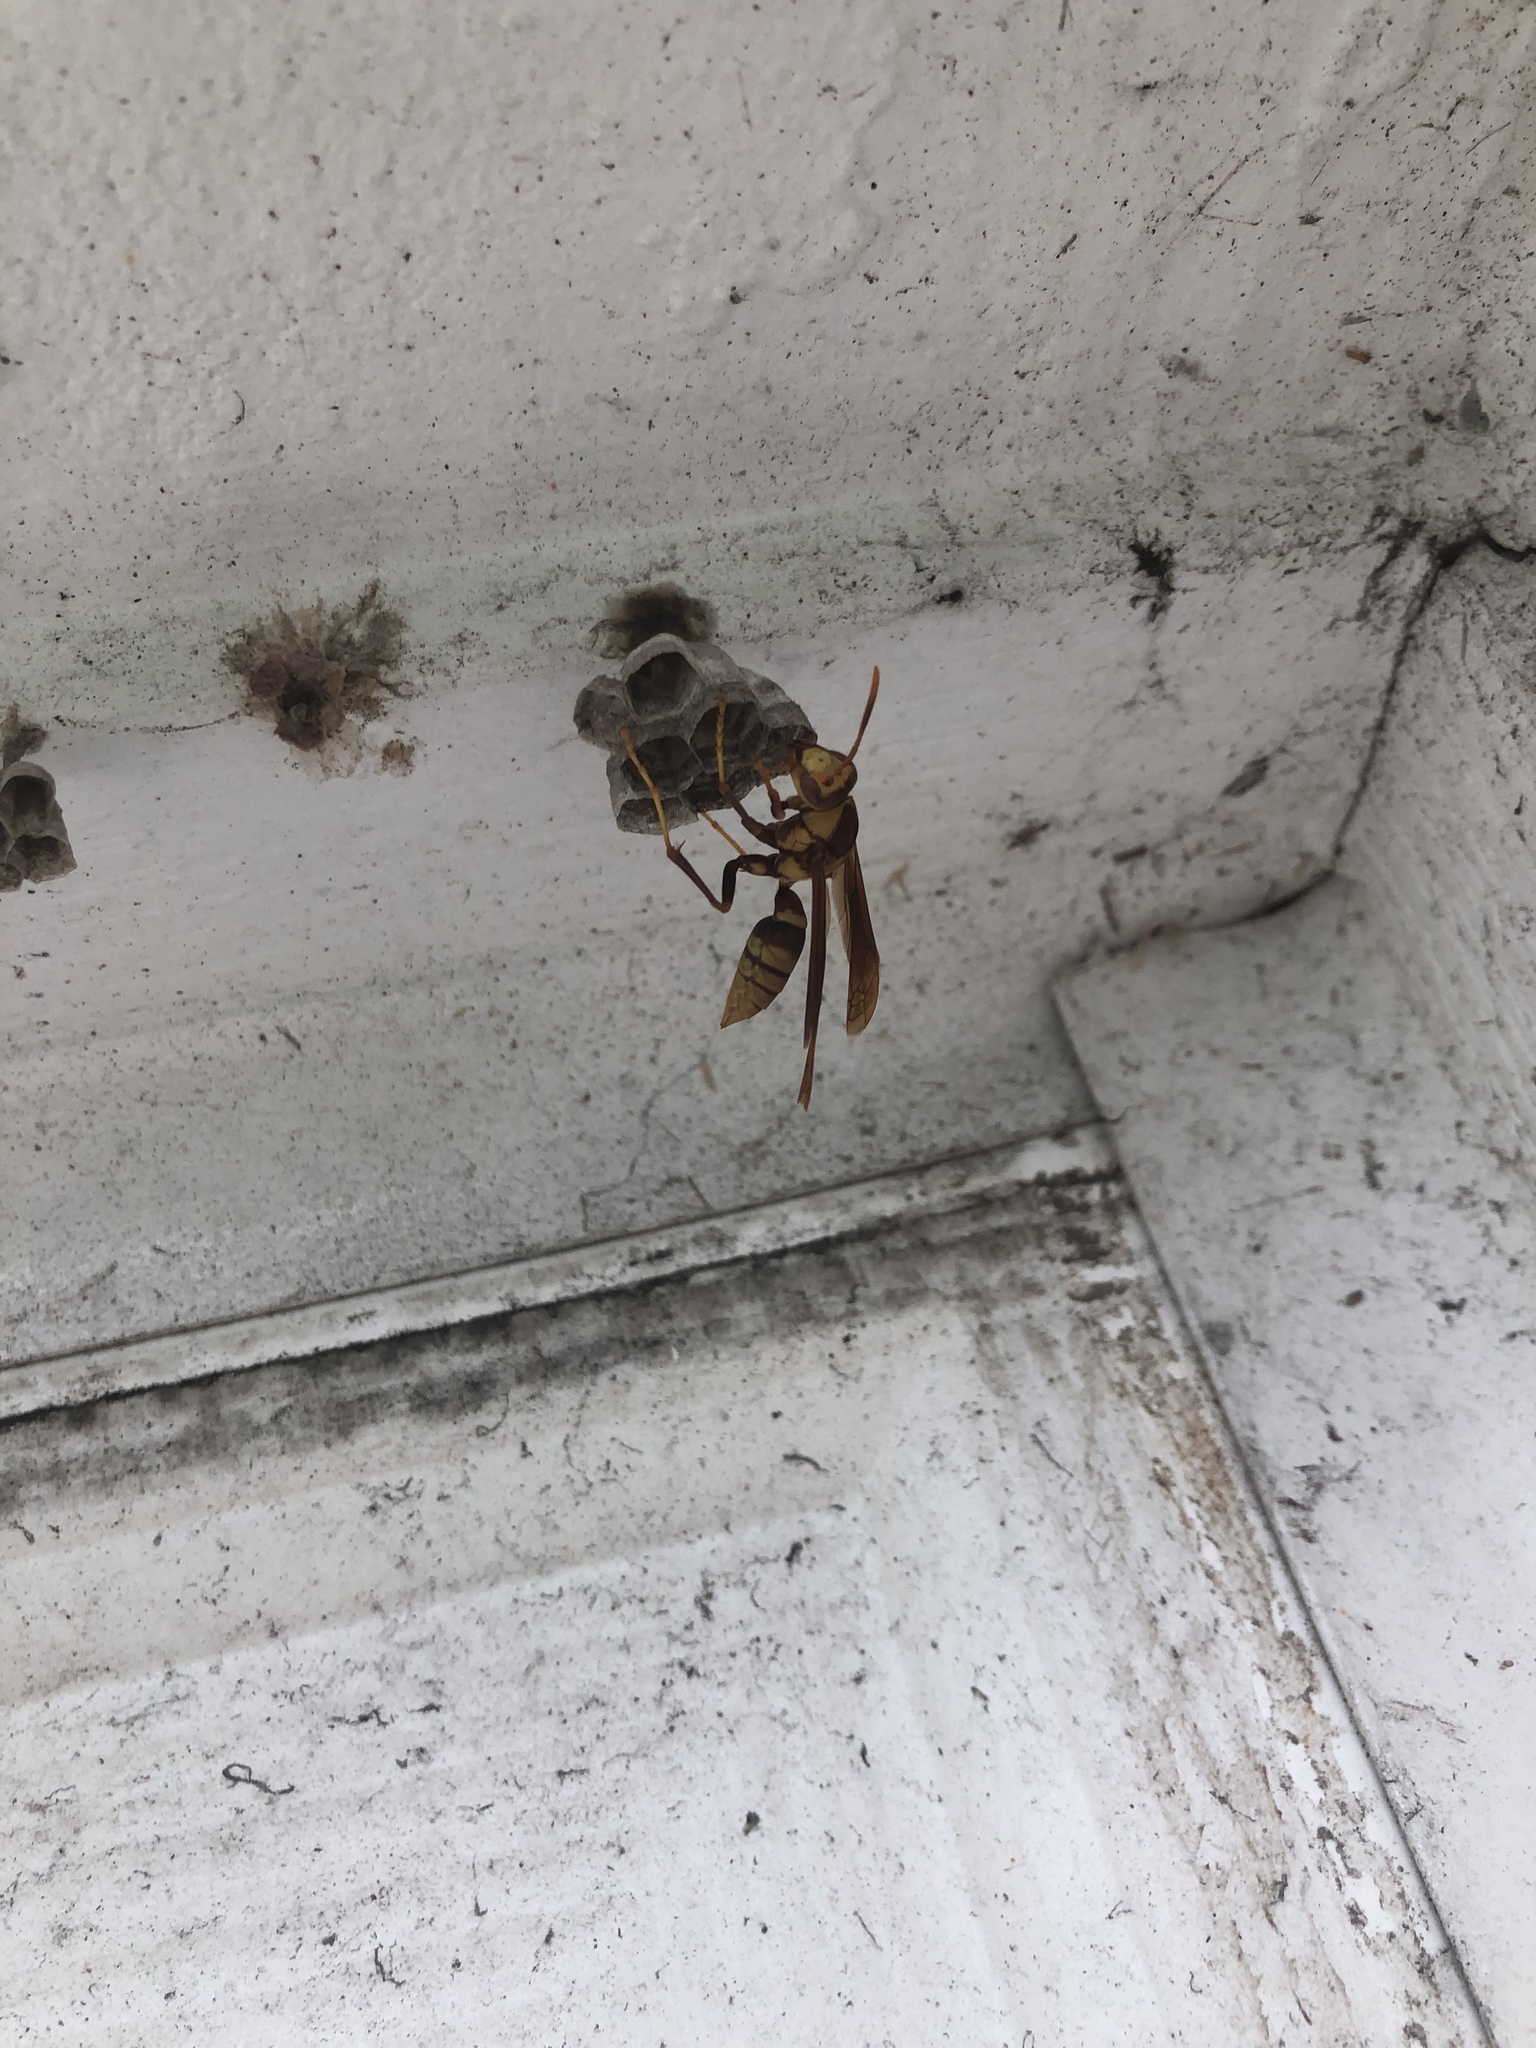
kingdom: Animalia
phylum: Arthropoda
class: Insecta
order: Hymenoptera
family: Eumenidae
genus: Polistes
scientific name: Polistes major
